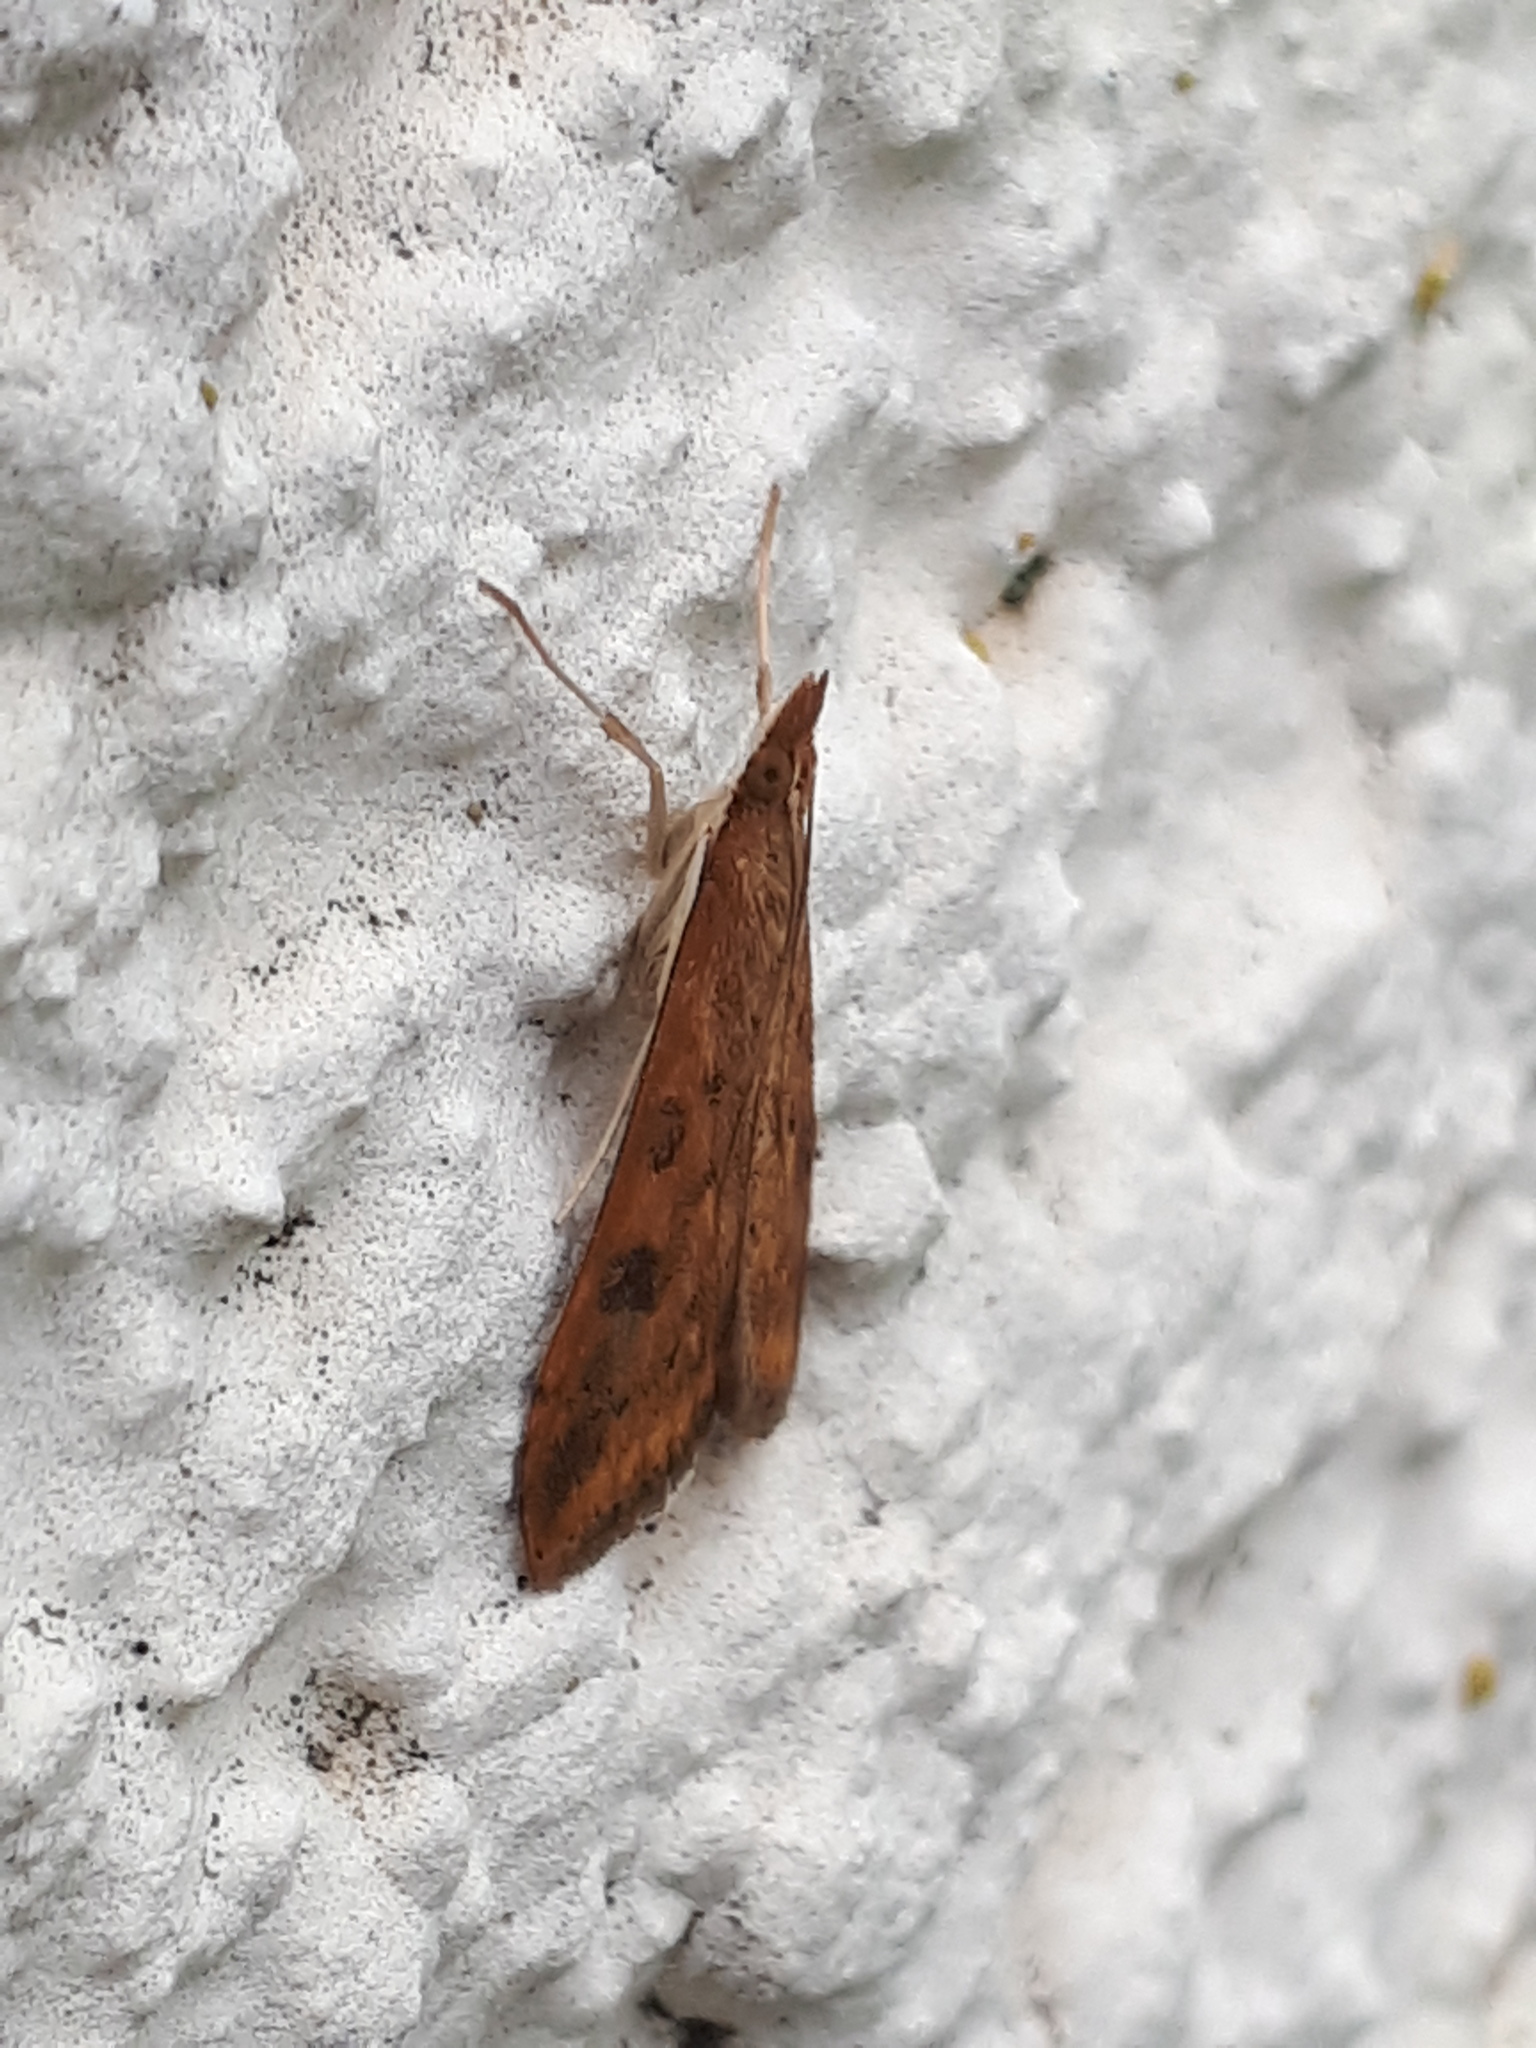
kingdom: Animalia
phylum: Arthropoda
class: Insecta
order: Lepidoptera
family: Crambidae
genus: Udea
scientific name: Udea ferrugalis
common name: Rusty dot
